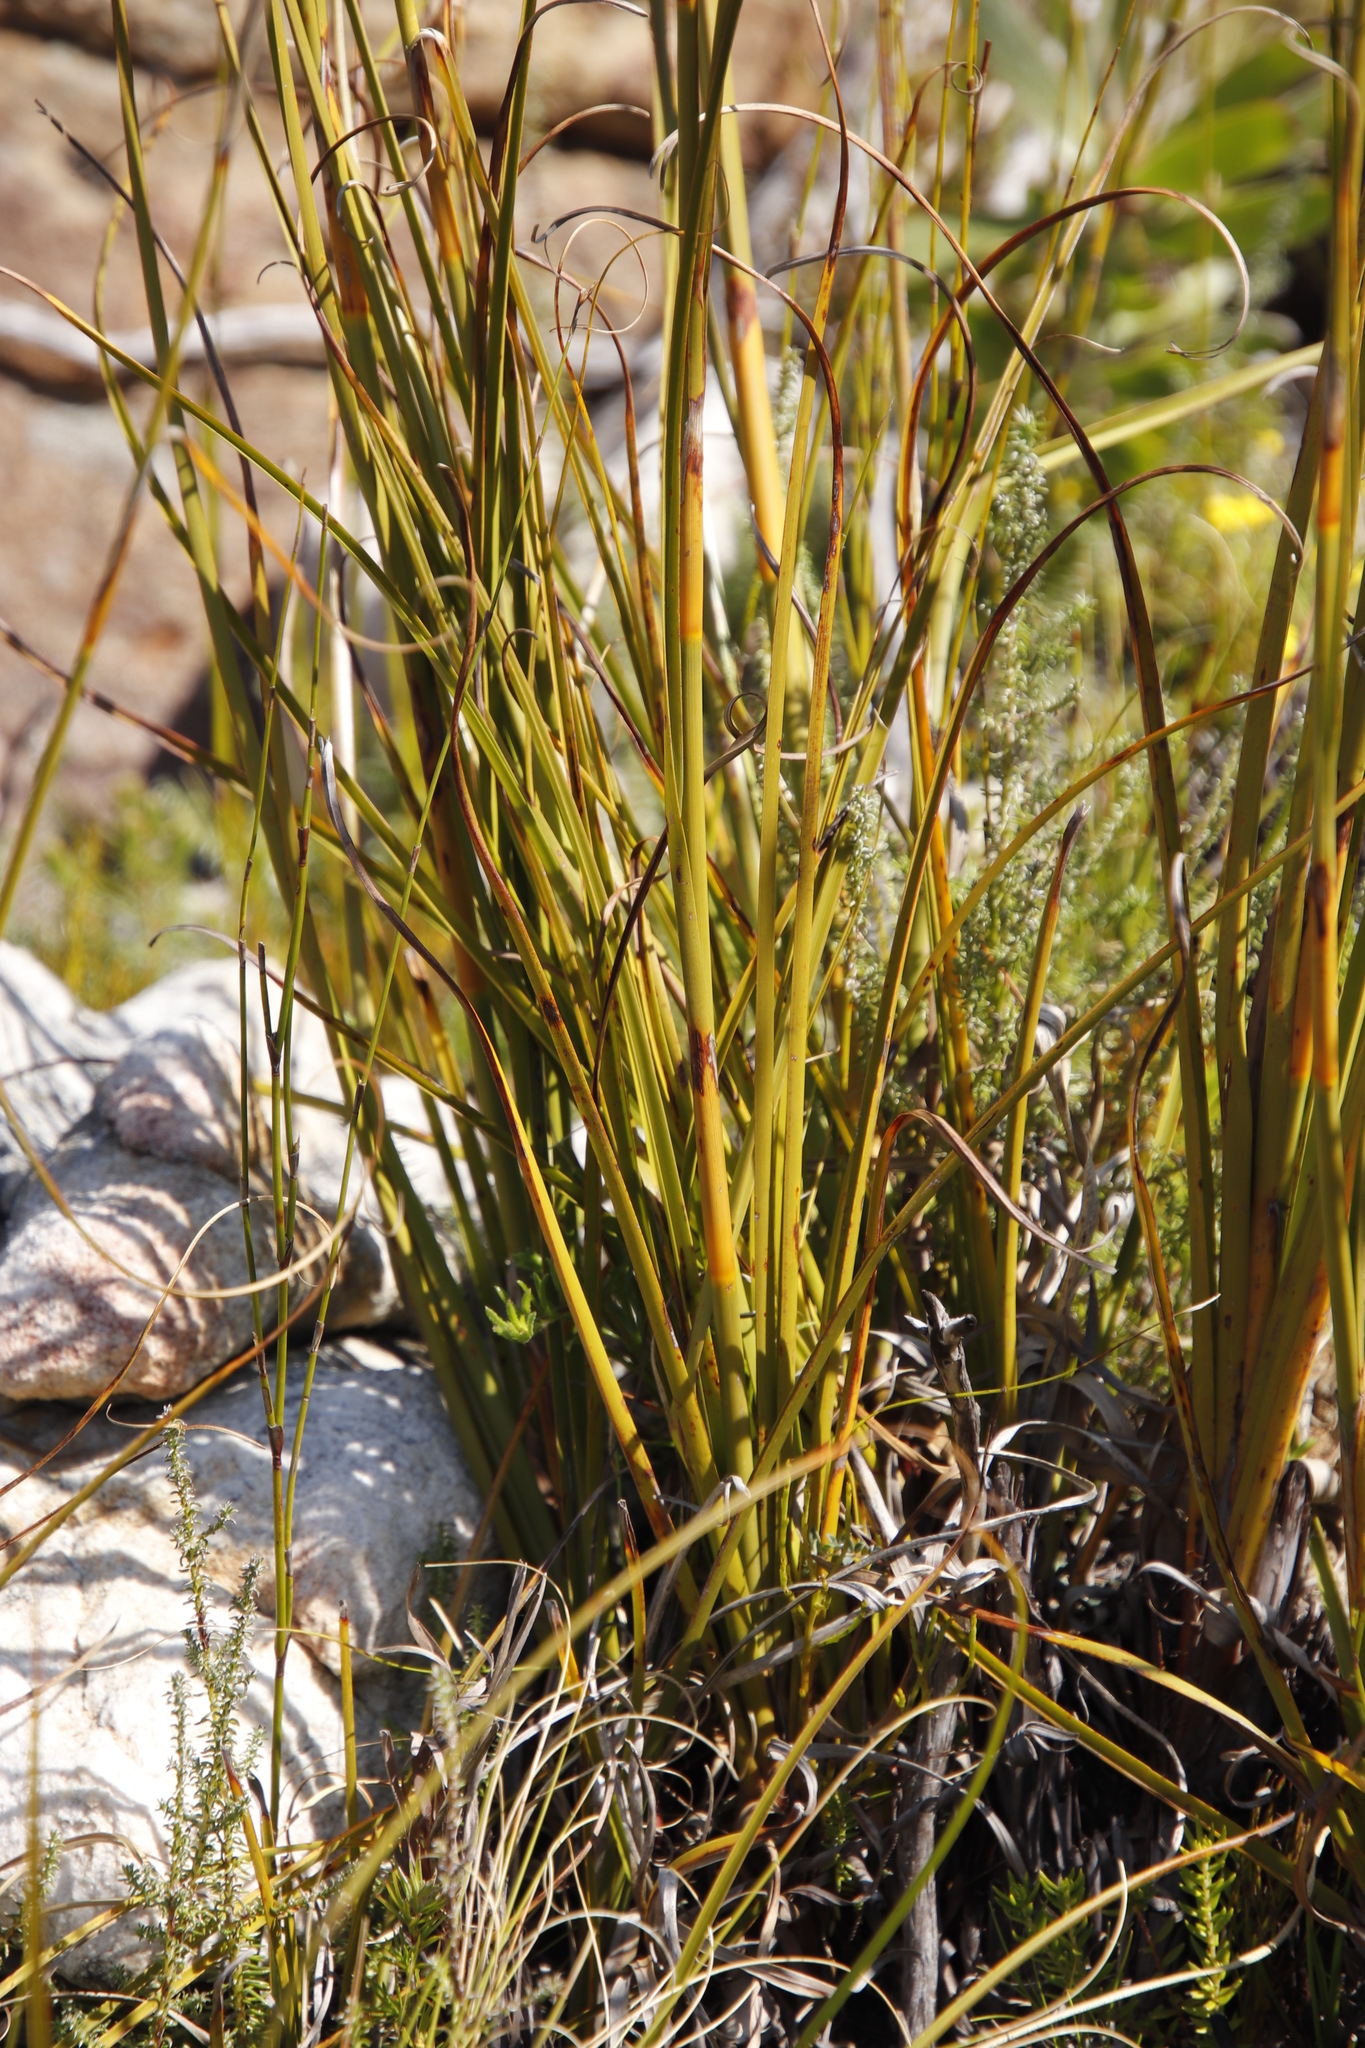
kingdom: Plantae
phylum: Tracheophyta
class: Liliopsida
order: Poales
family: Cyperaceae
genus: Tetraria
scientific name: Tetraria bromoides
